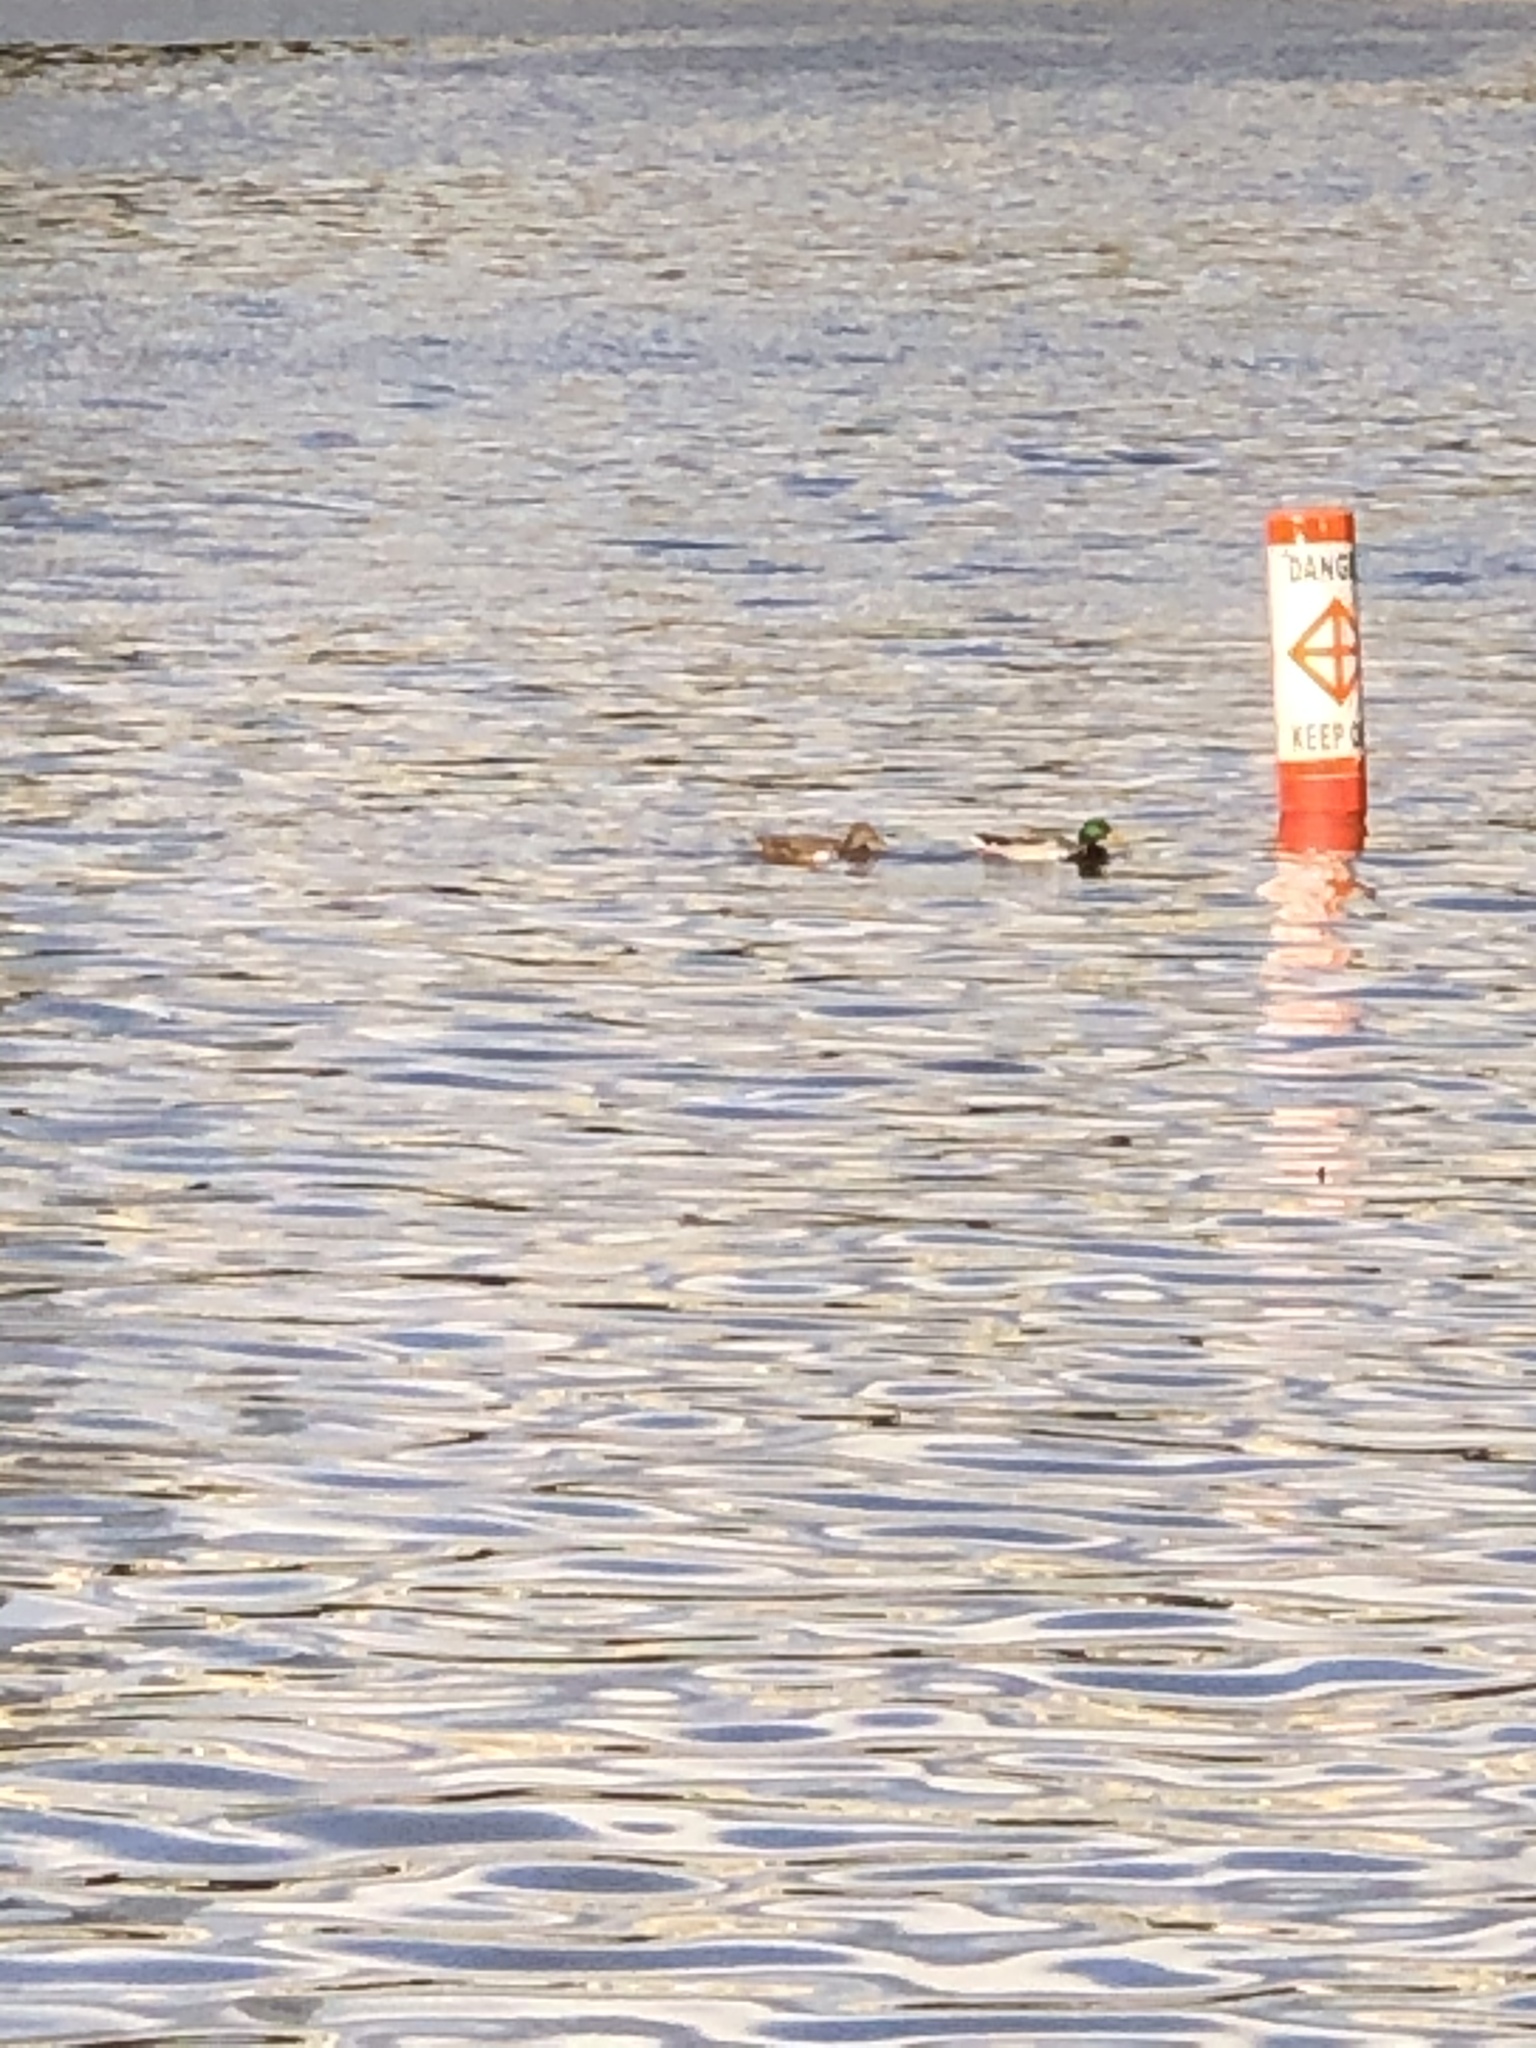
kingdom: Animalia
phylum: Chordata
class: Aves
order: Anseriformes
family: Anatidae
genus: Anas
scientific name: Anas platyrhynchos
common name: Mallard
